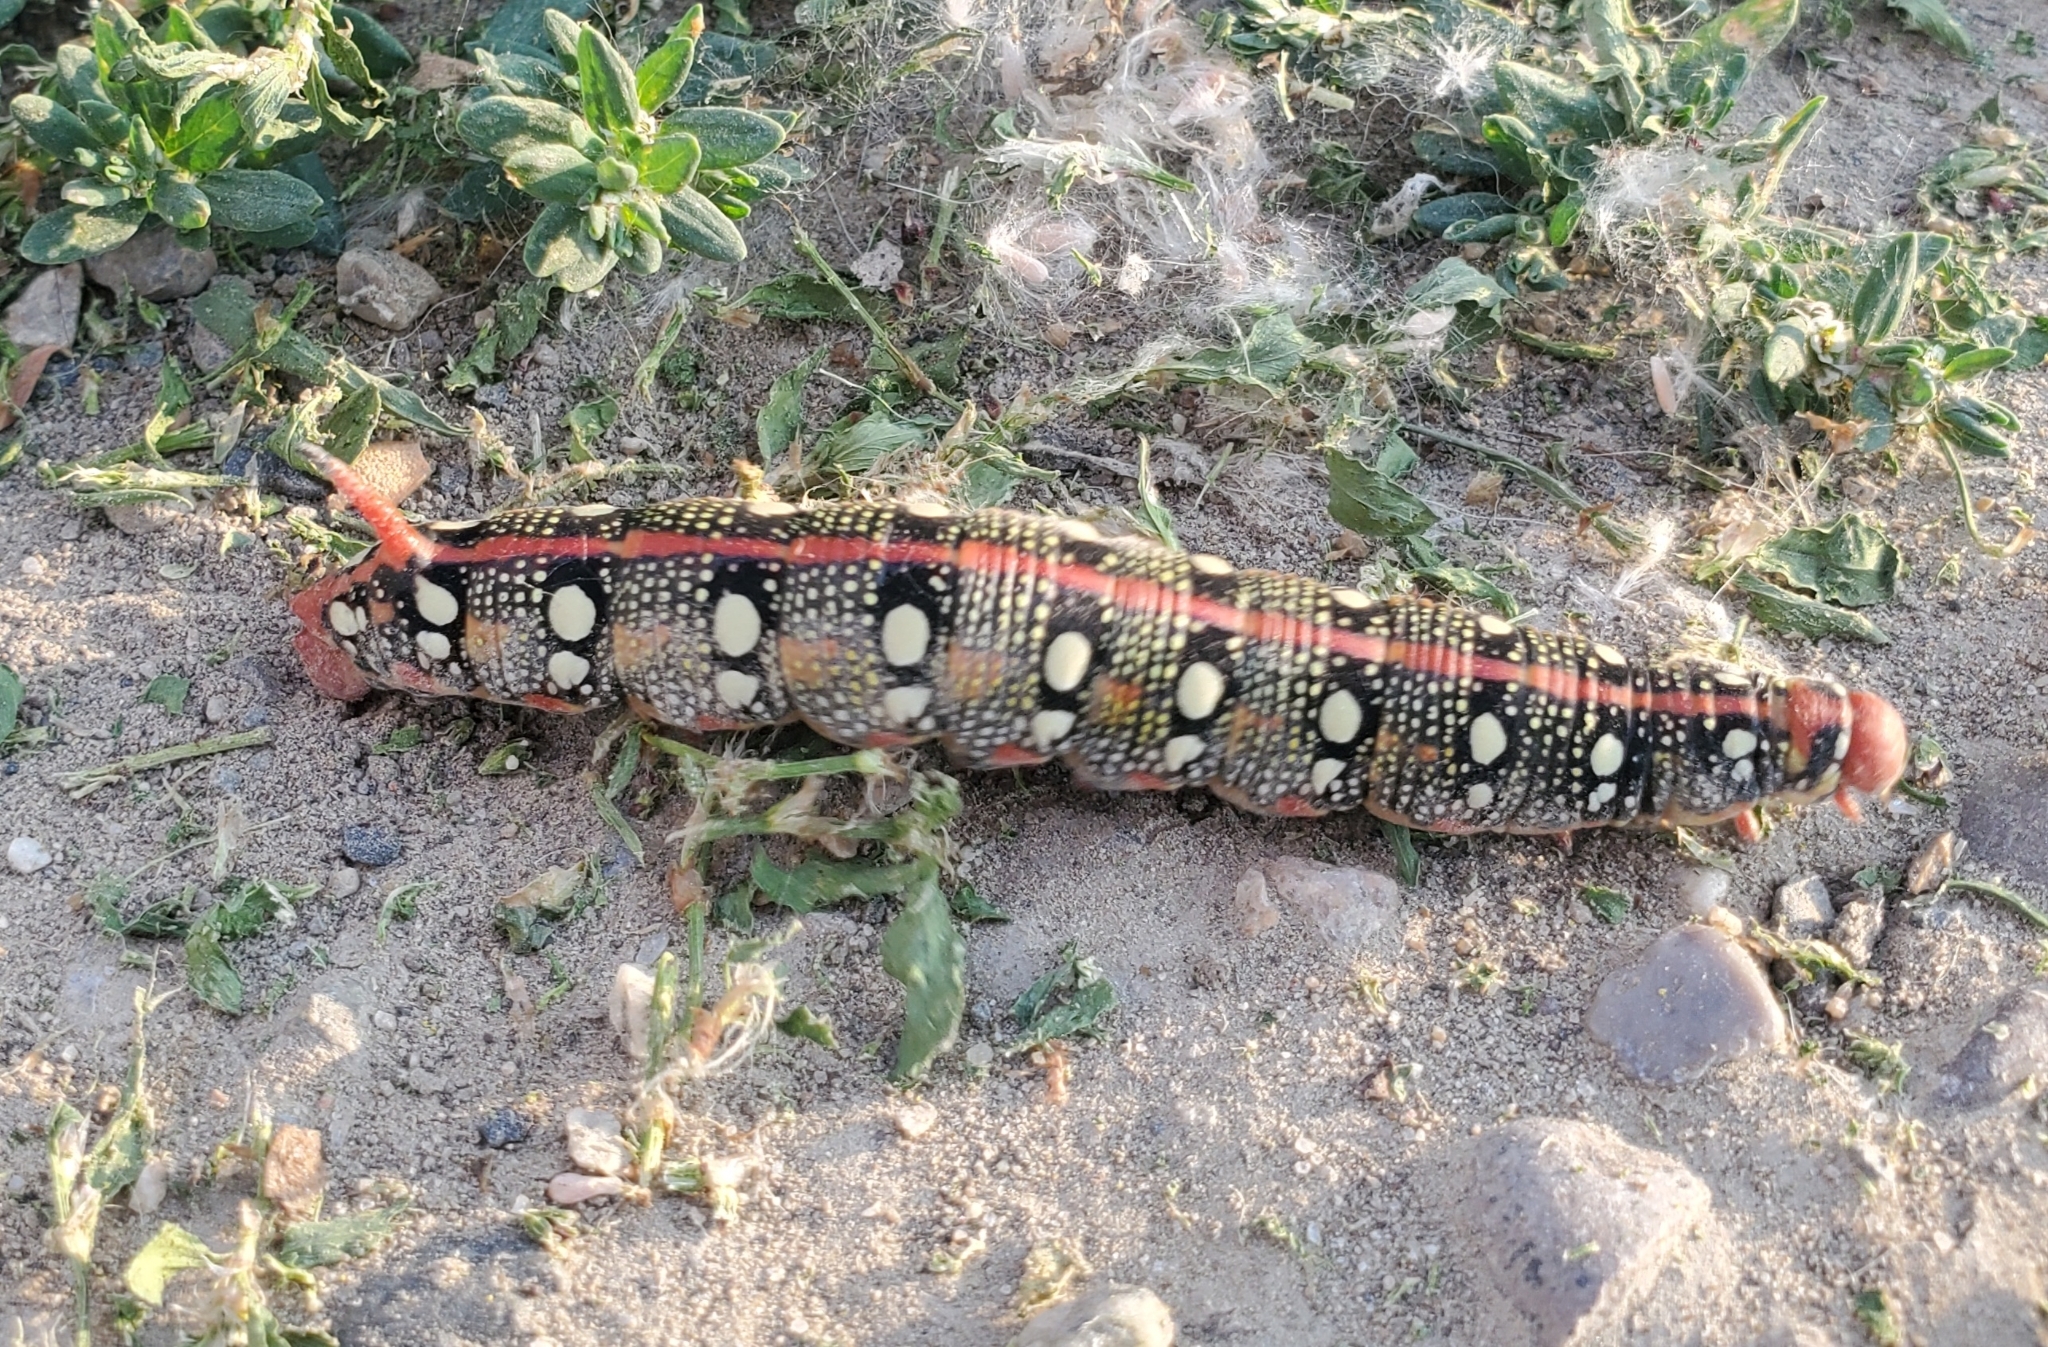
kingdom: Animalia
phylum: Arthropoda
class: Insecta
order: Lepidoptera
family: Sphingidae
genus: Hyles
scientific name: Hyles euphorbiae
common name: Spurge hawk-moth
